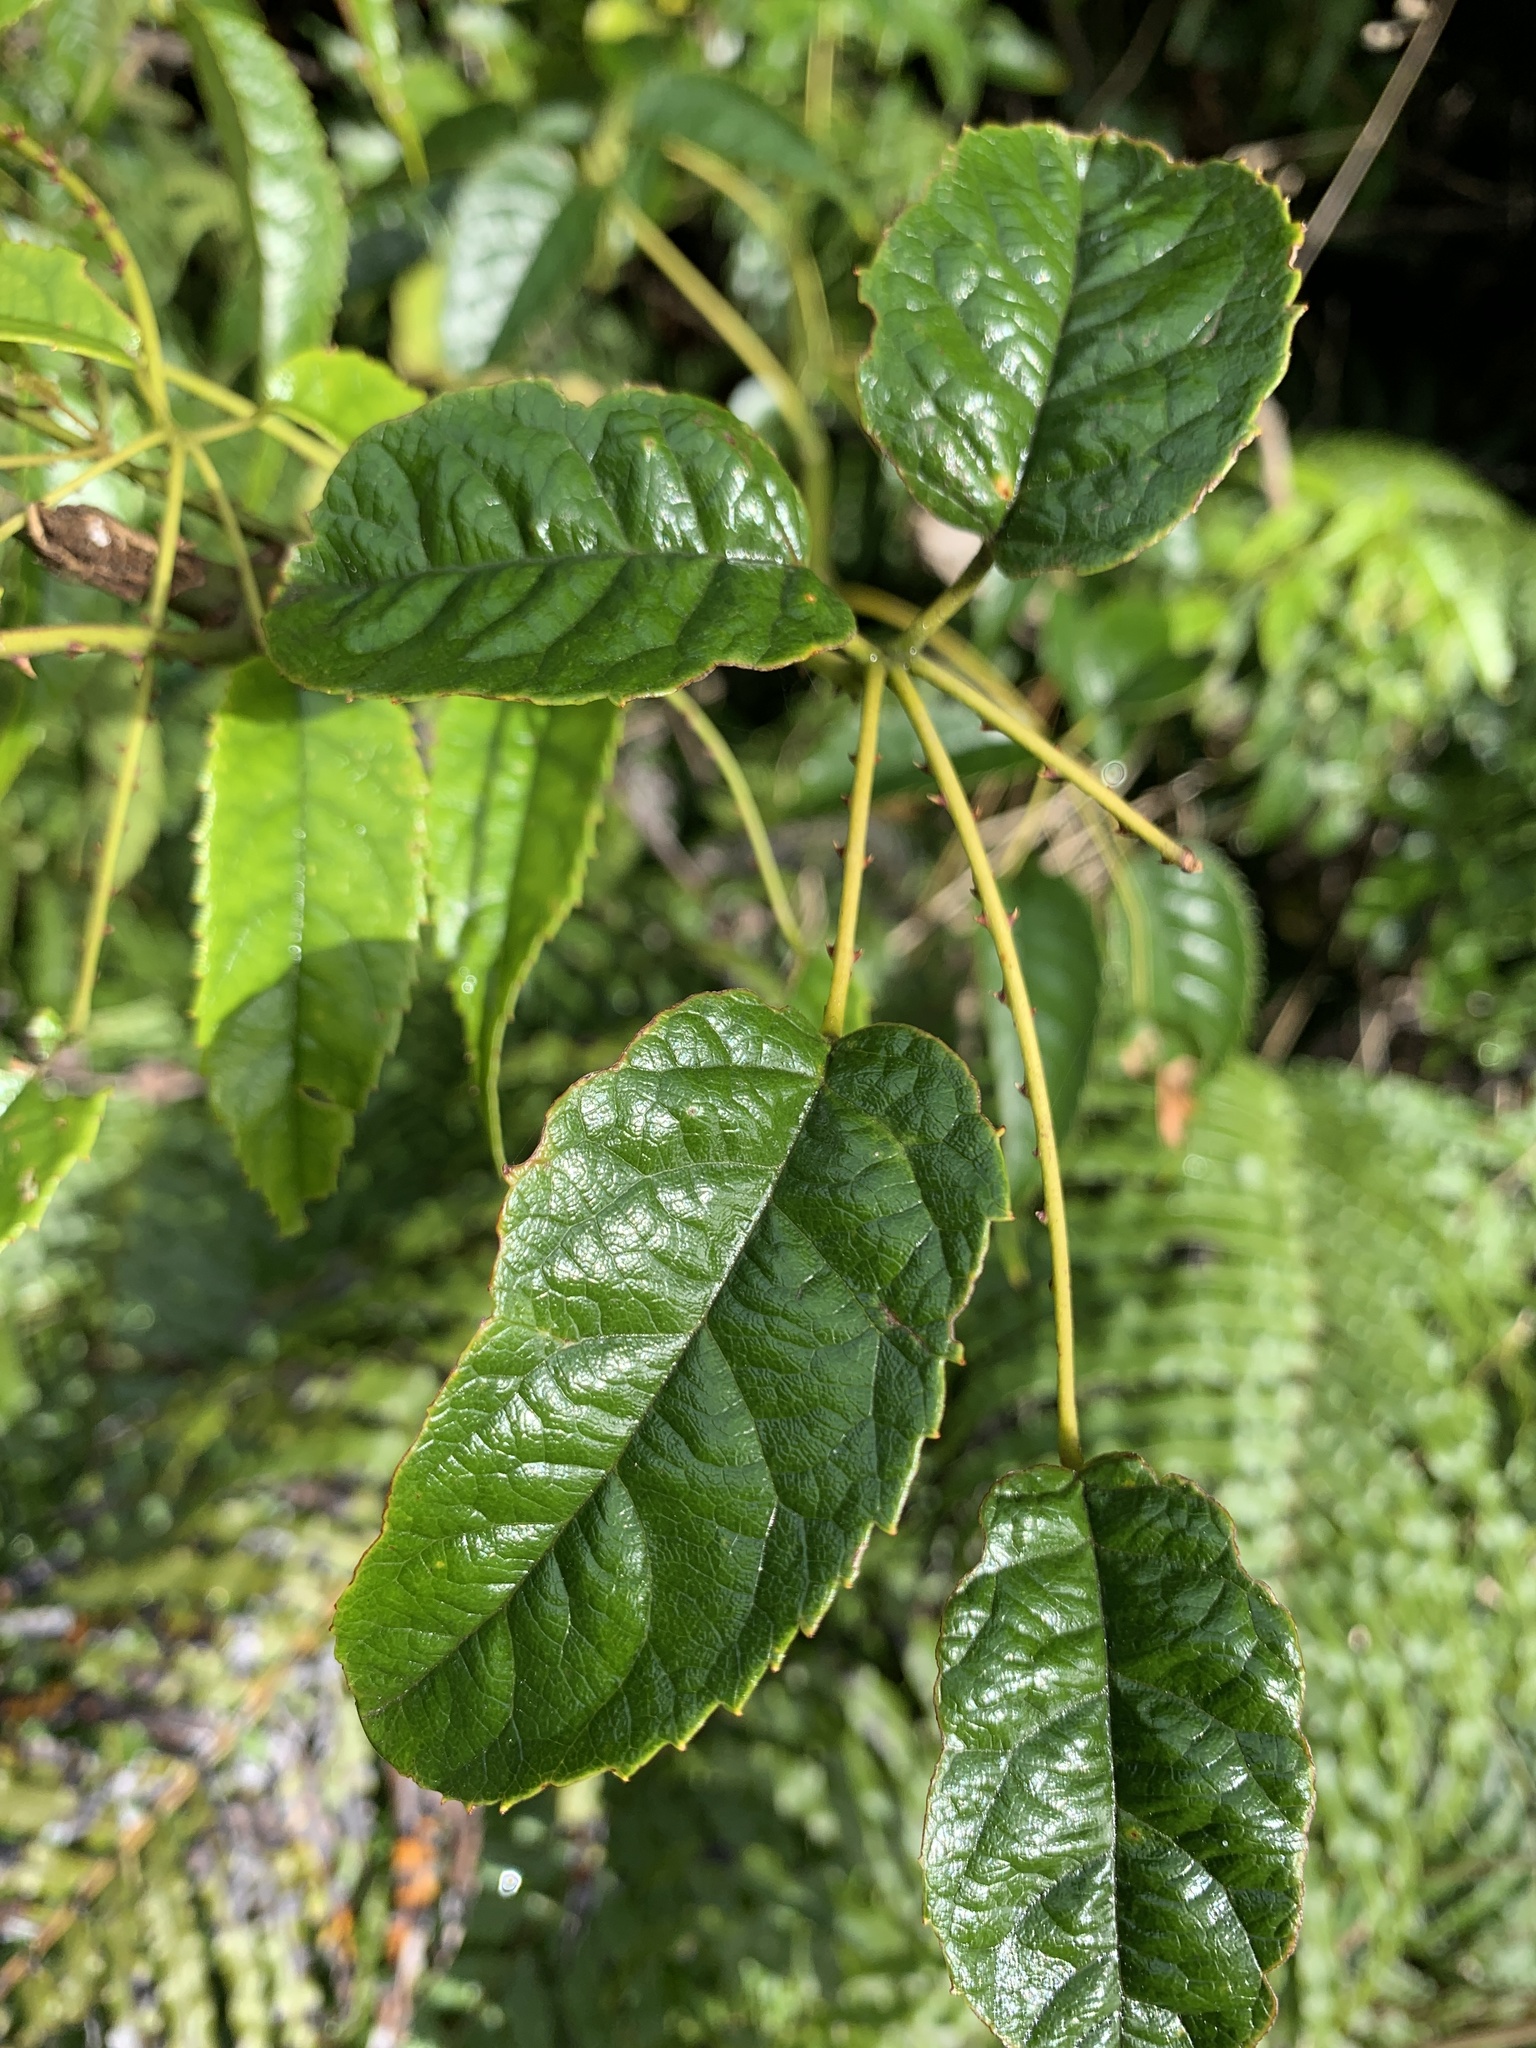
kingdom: Plantae
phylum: Tracheophyta
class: Magnoliopsida
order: Rosales
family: Rosaceae
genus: Rubus
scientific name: Rubus cissoides
